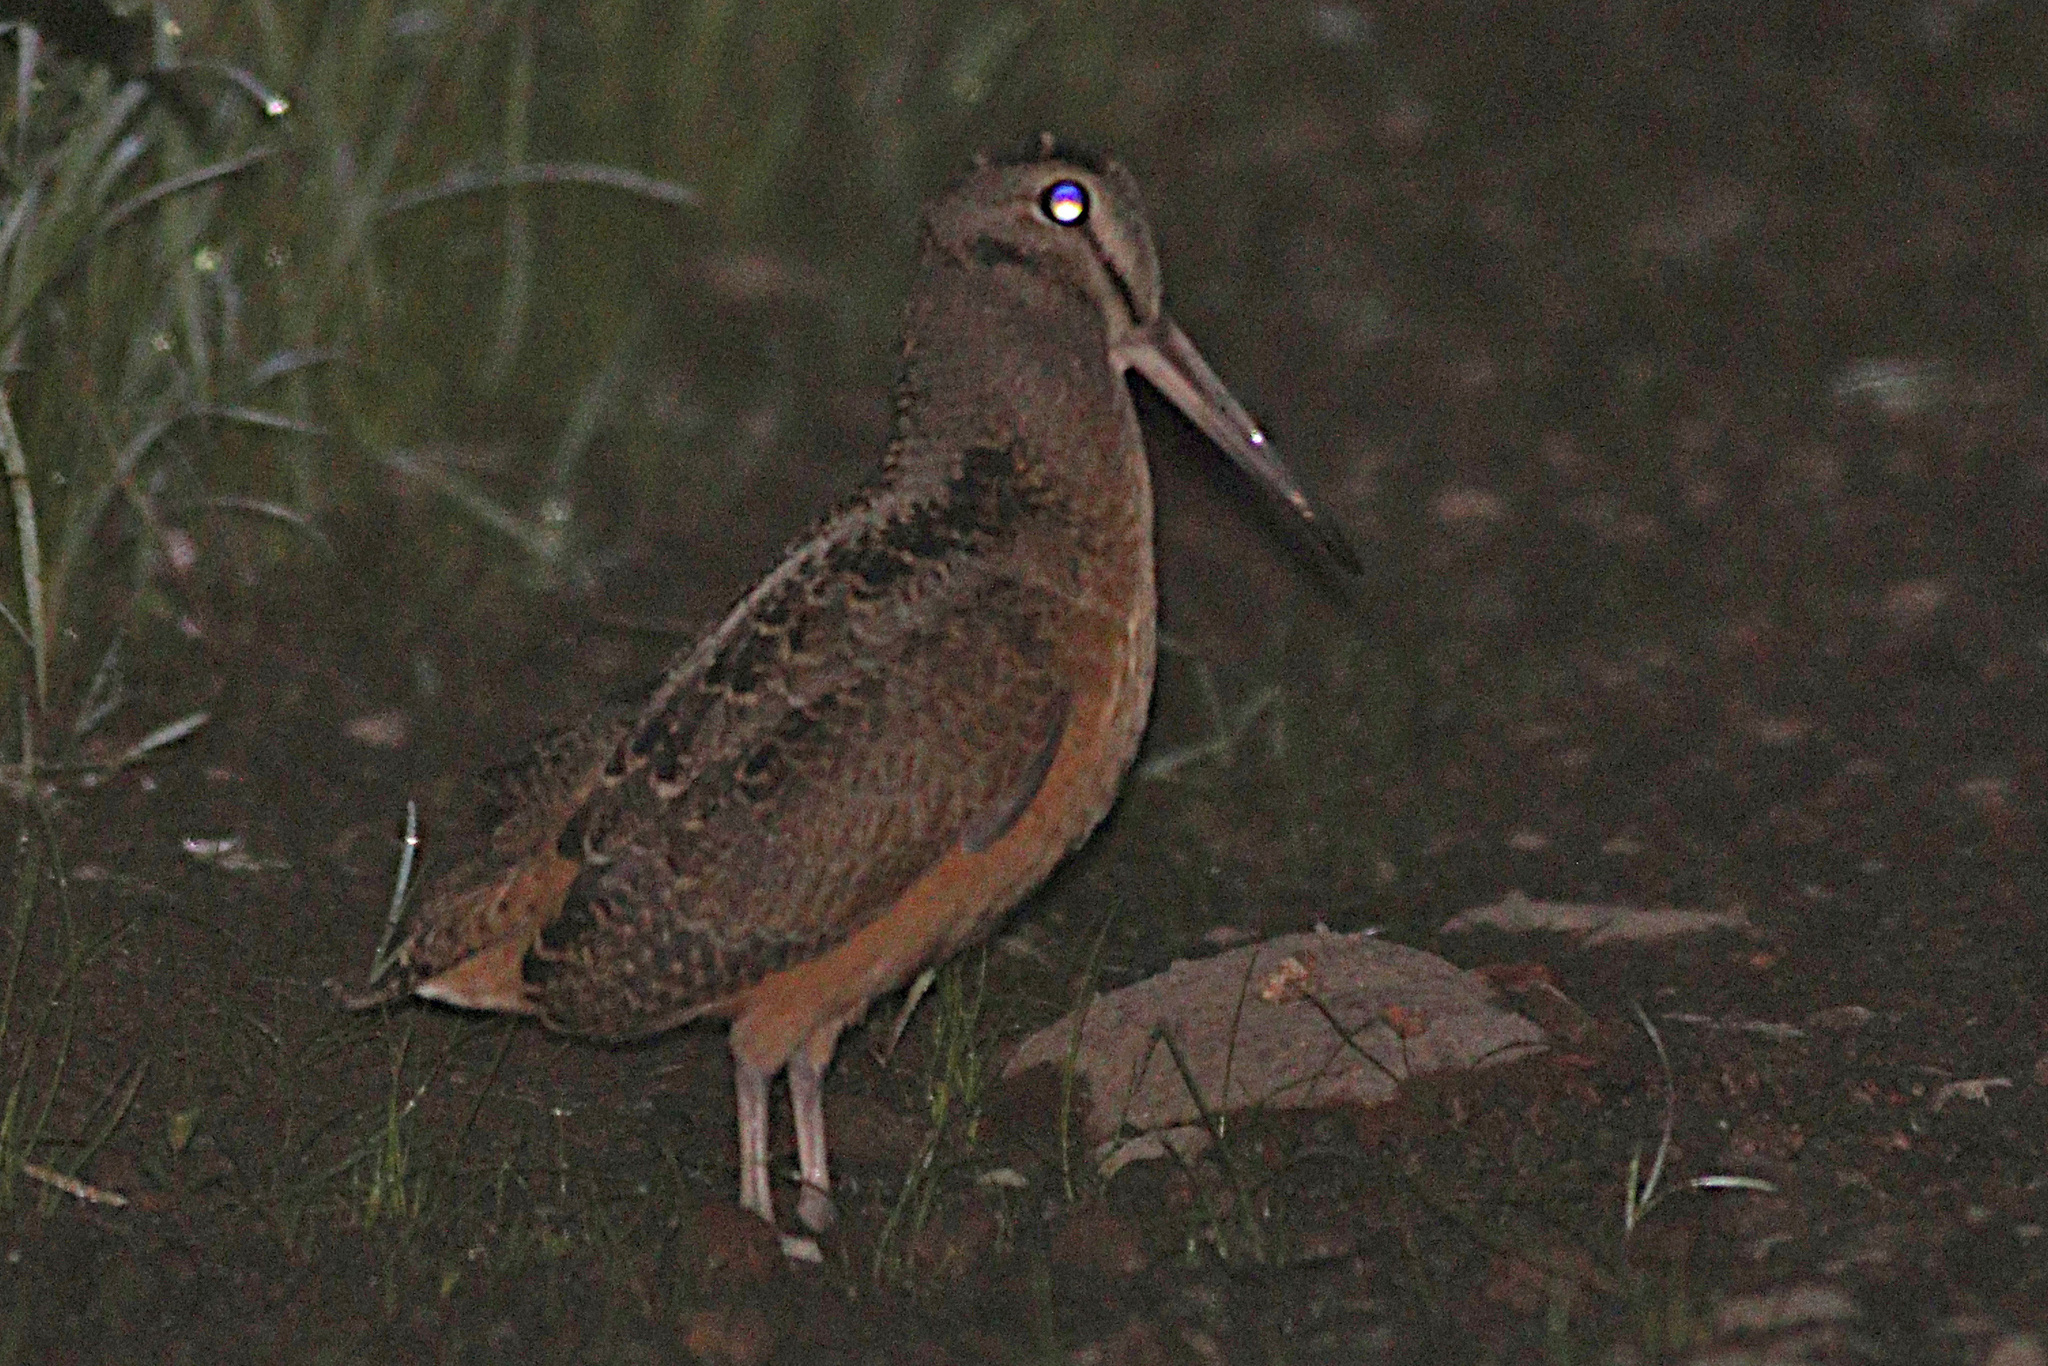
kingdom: Animalia
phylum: Chordata
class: Aves
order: Charadriiformes
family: Scolopacidae
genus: Scolopax
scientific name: Scolopax minor
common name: American woodcock
